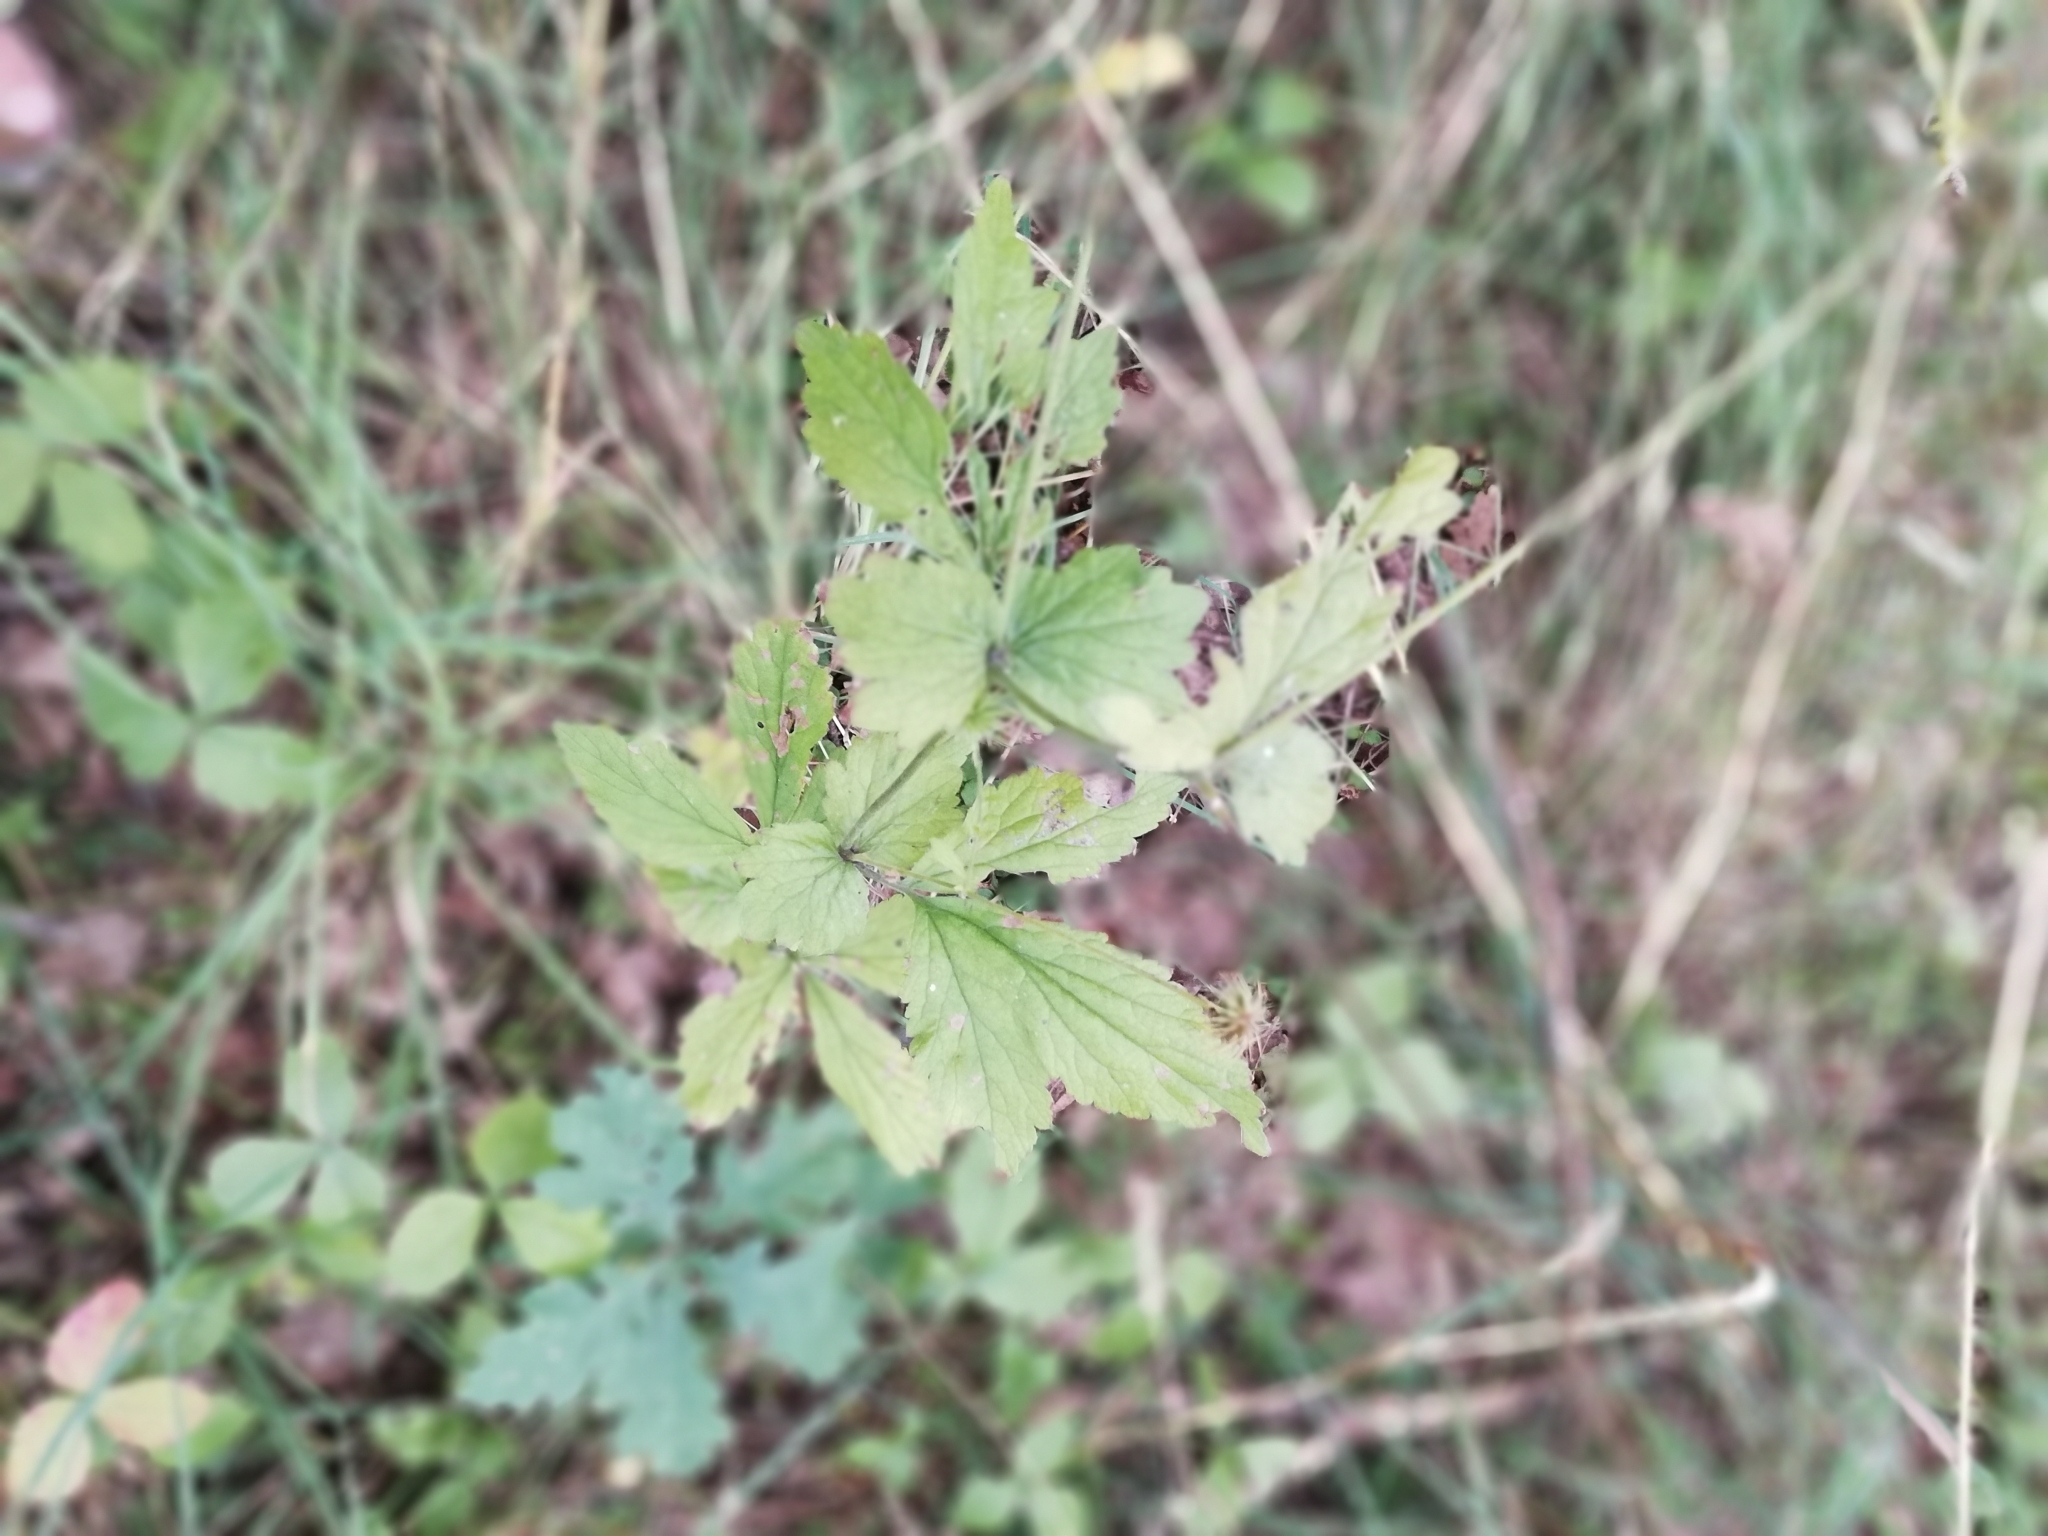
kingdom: Plantae
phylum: Tracheophyta
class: Magnoliopsida
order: Rosales
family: Rosaceae
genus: Geum
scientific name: Geum urbanum
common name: Wood avens
